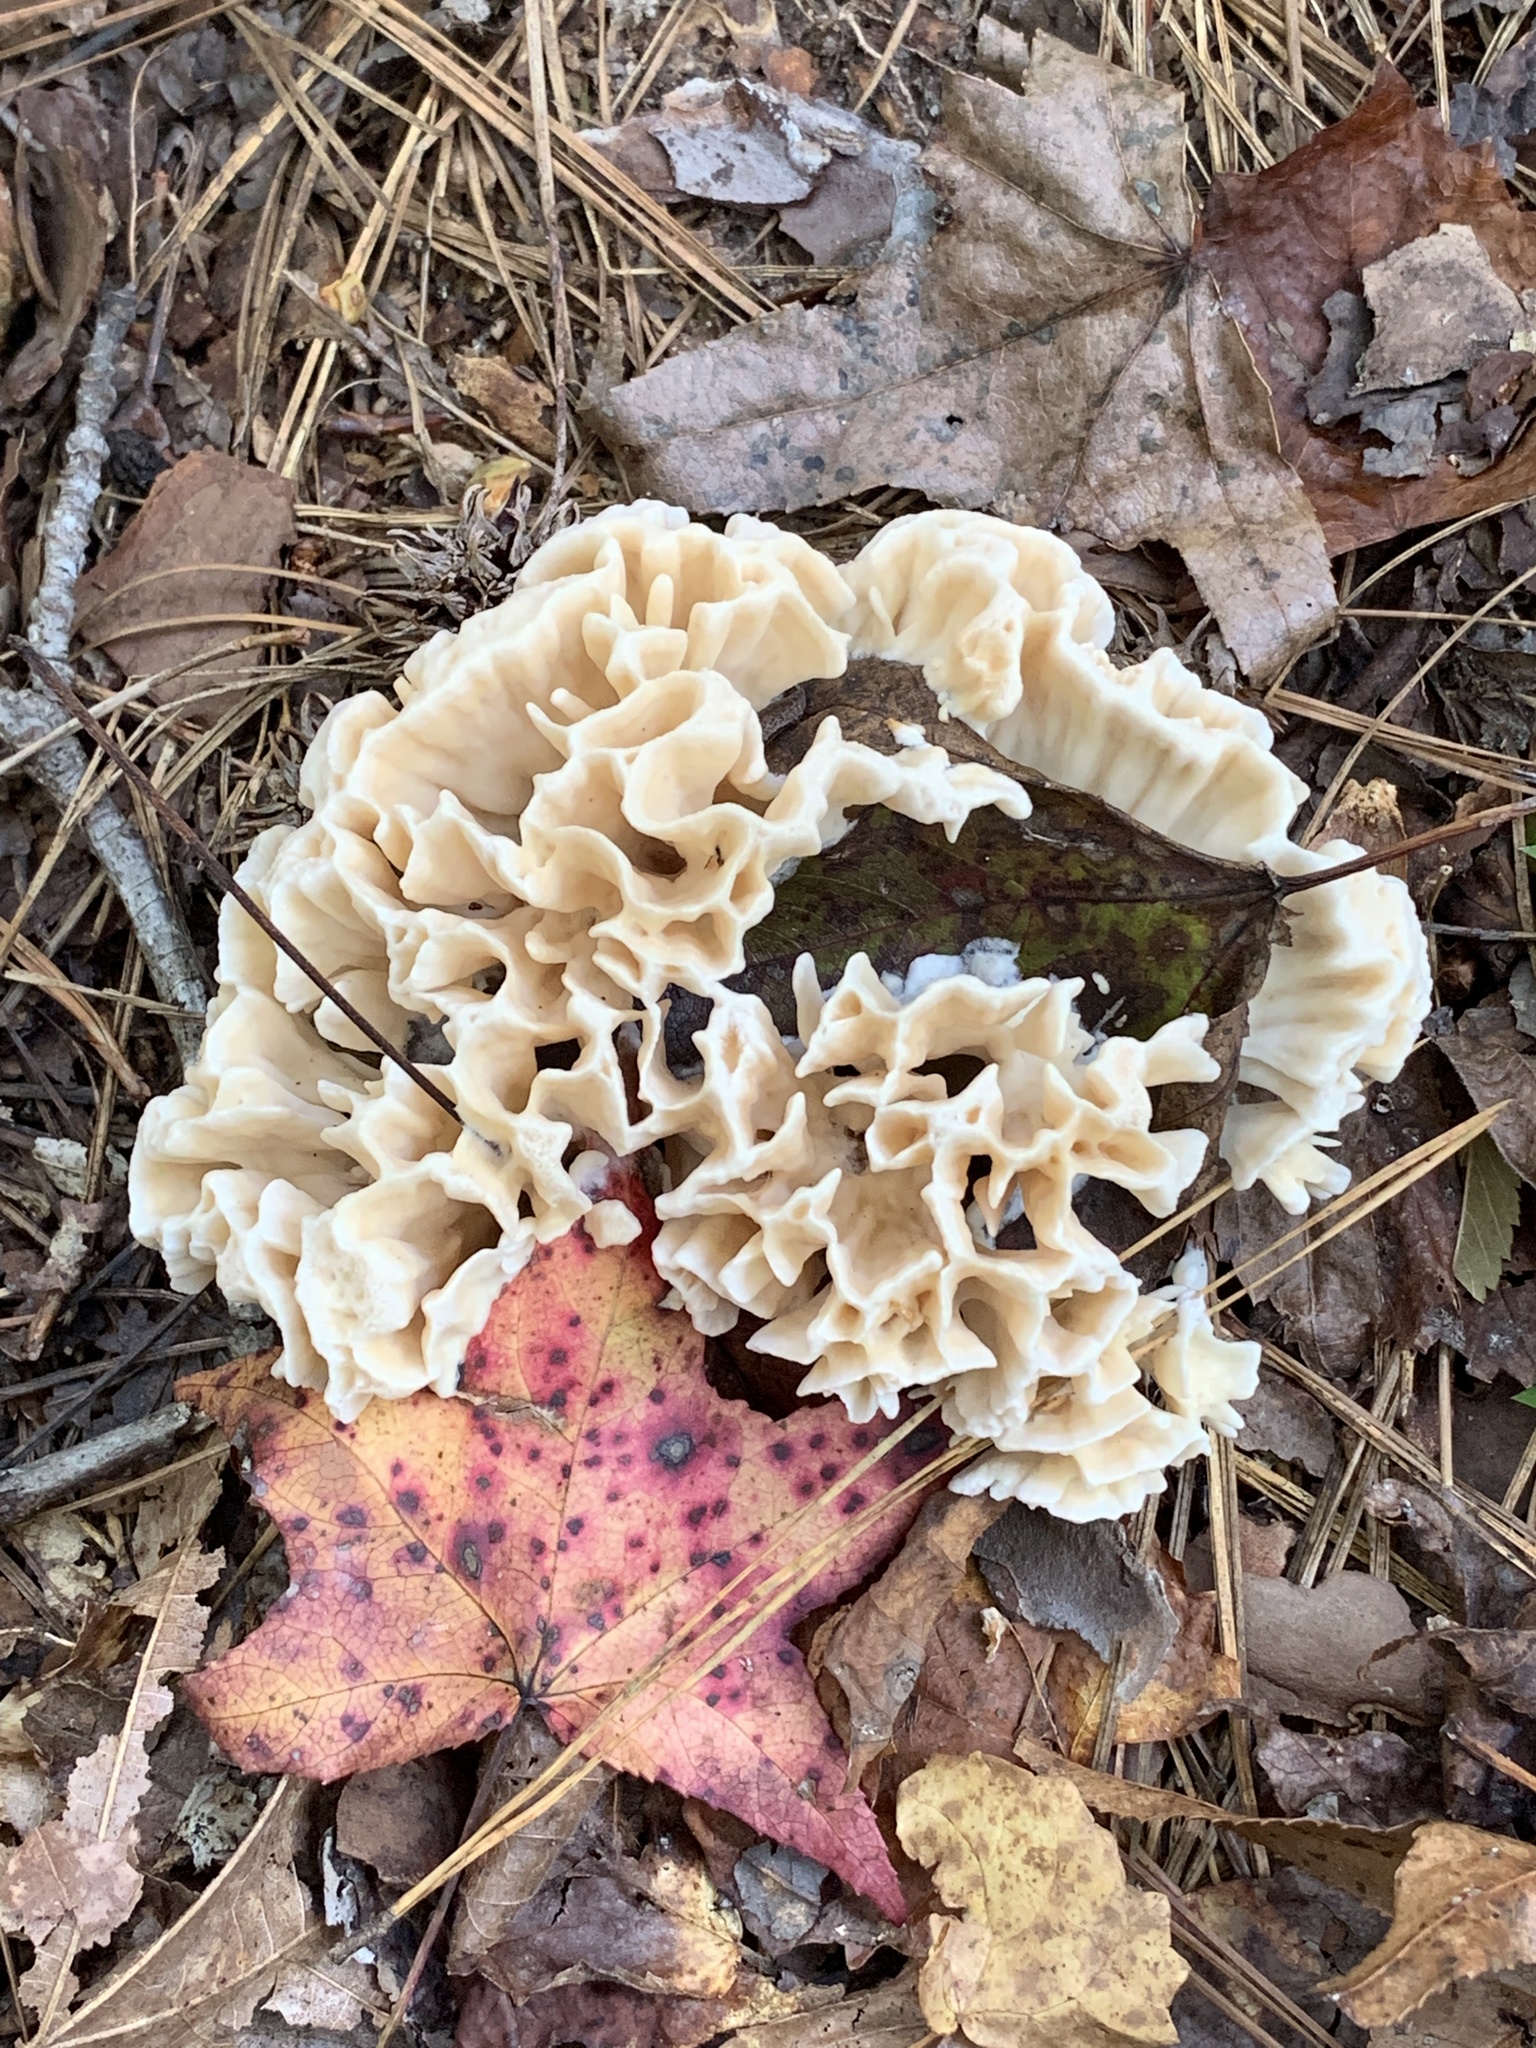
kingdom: Fungi
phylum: Basidiomycota
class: Agaricomycetes
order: Polyporales
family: Sparassidaceae
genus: Sparassis
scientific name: Sparassis spathulata
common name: Eastern cauliflower mushroom
